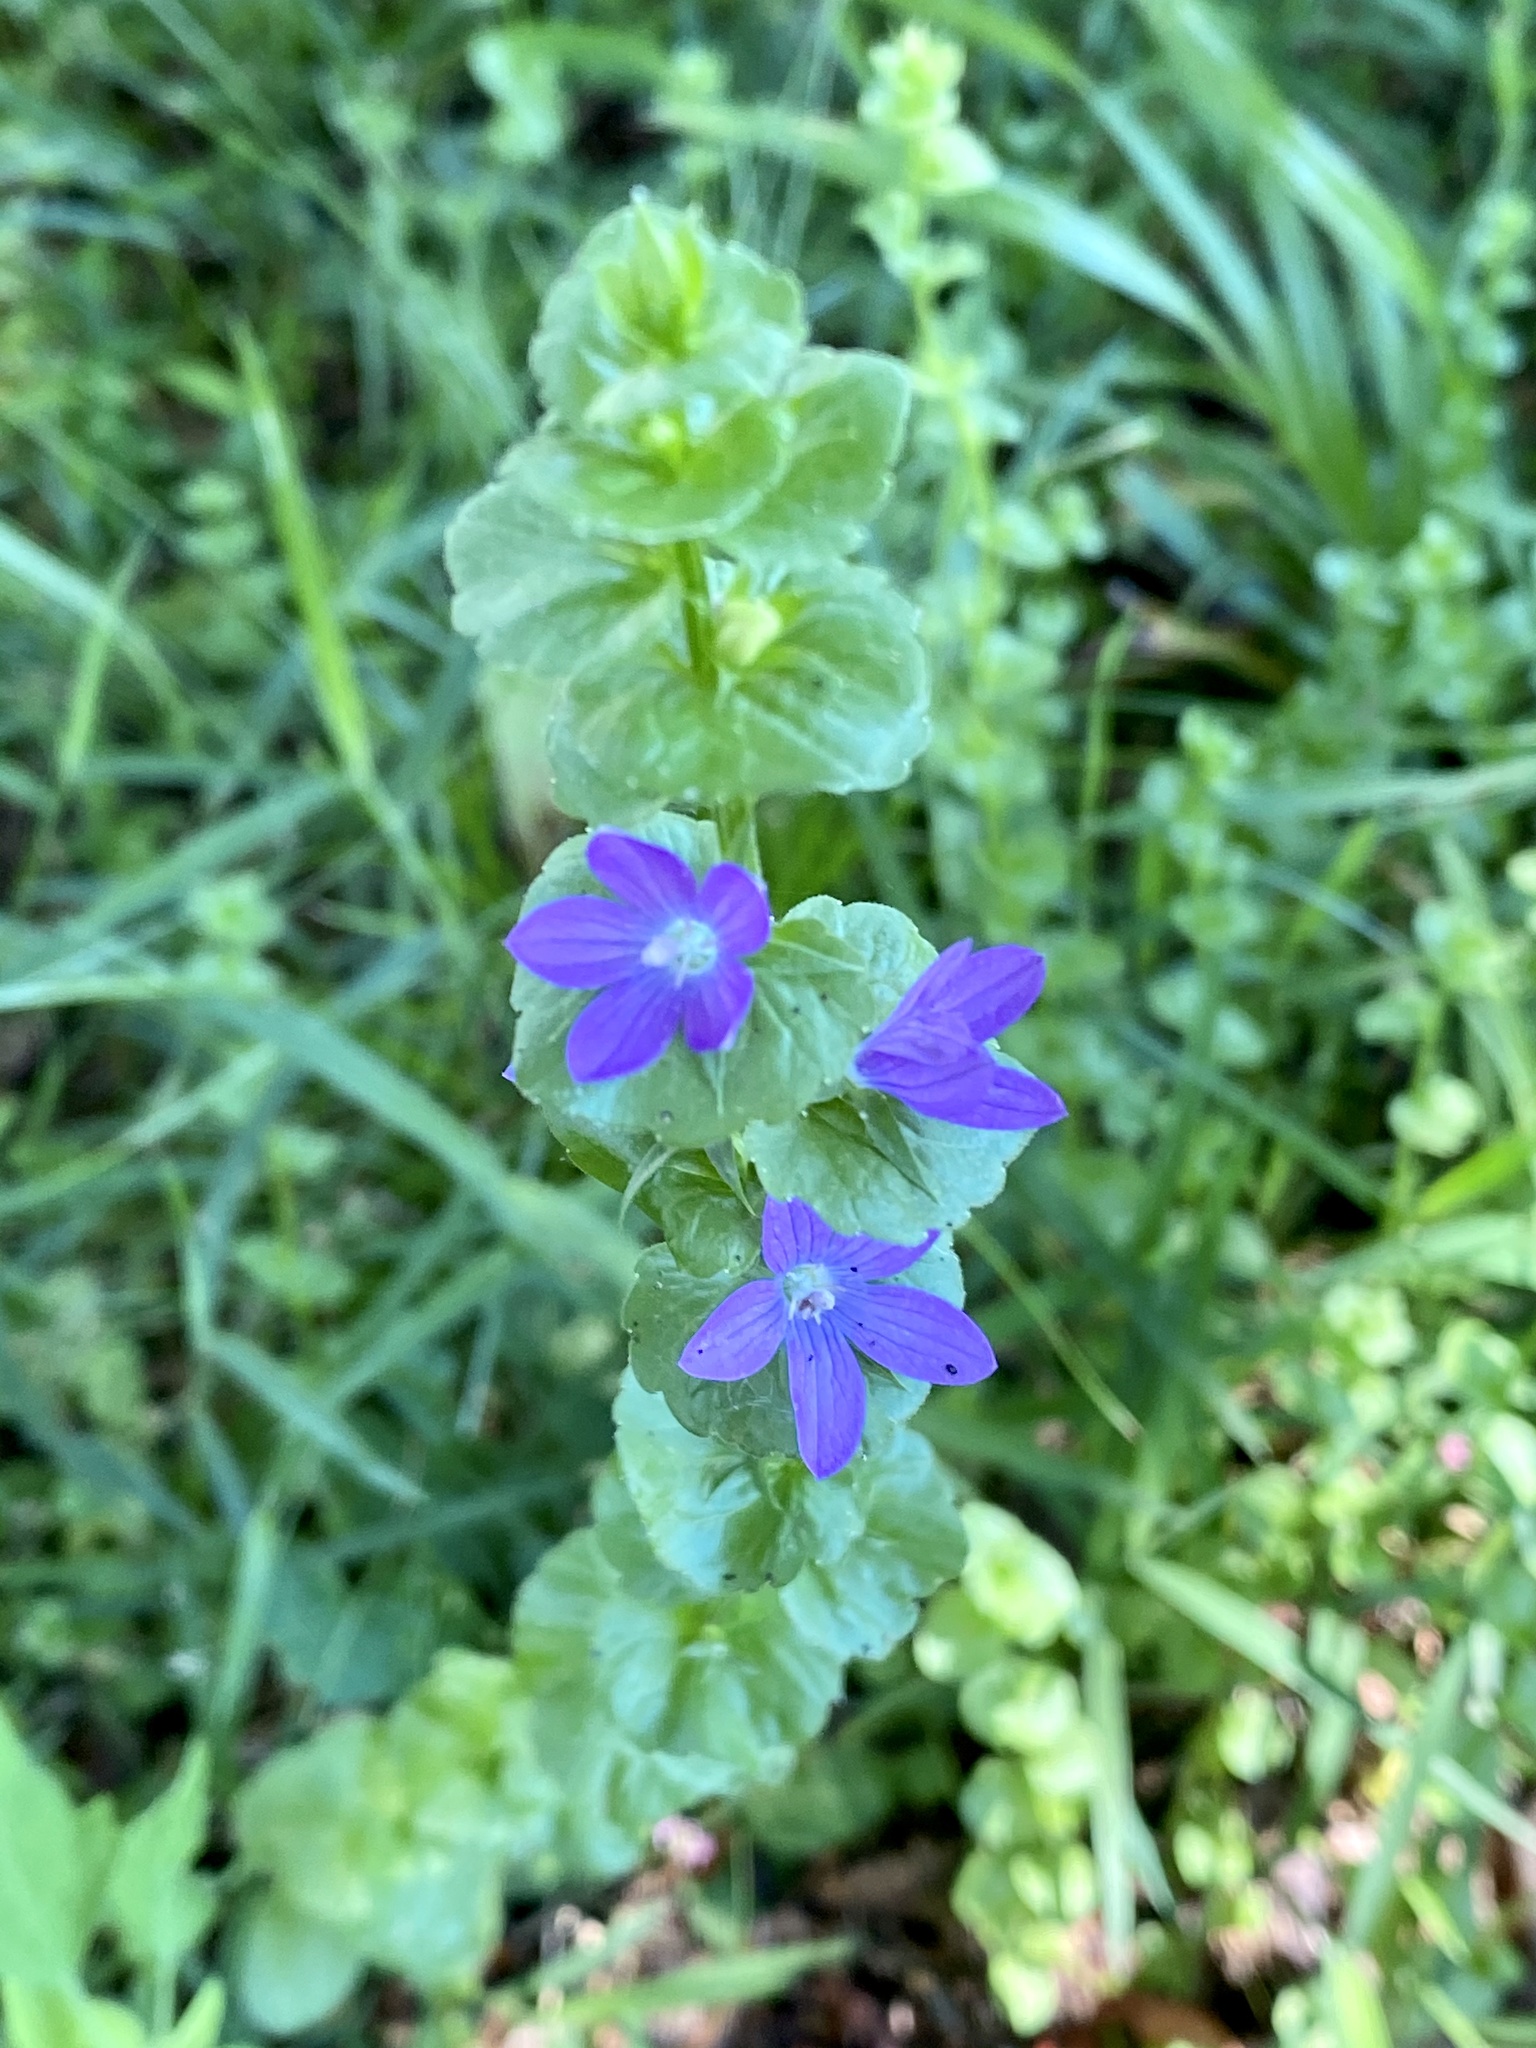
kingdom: Plantae
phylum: Tracheophyta
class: Magnoliopsida
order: Asterales
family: Campanulaceae
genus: Triodanis
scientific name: Triodanis perfoliata
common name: Clasping venus' looking-glass
